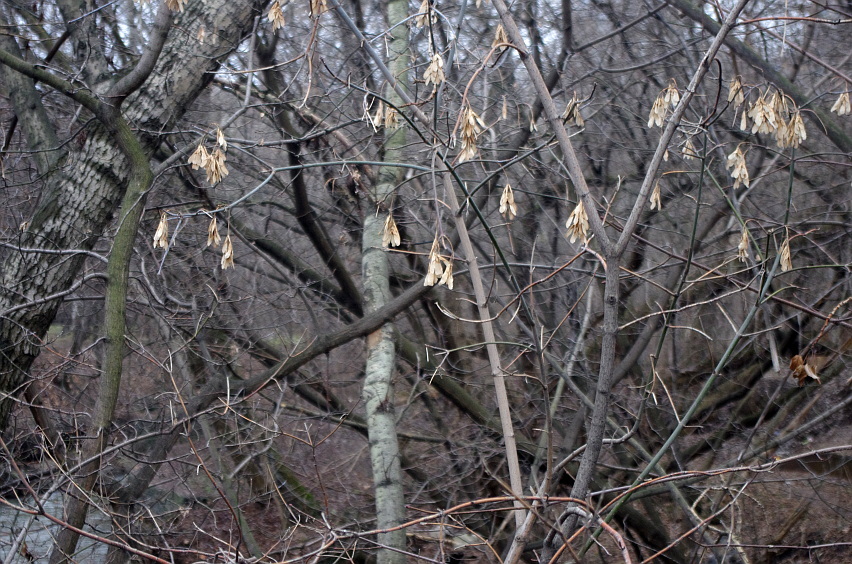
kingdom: Plantae
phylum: Tracheophyta
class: Magnoliopsida
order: Sapindales
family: Sapindaceae
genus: Acer
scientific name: Acer negundo
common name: Ashleaf maple
